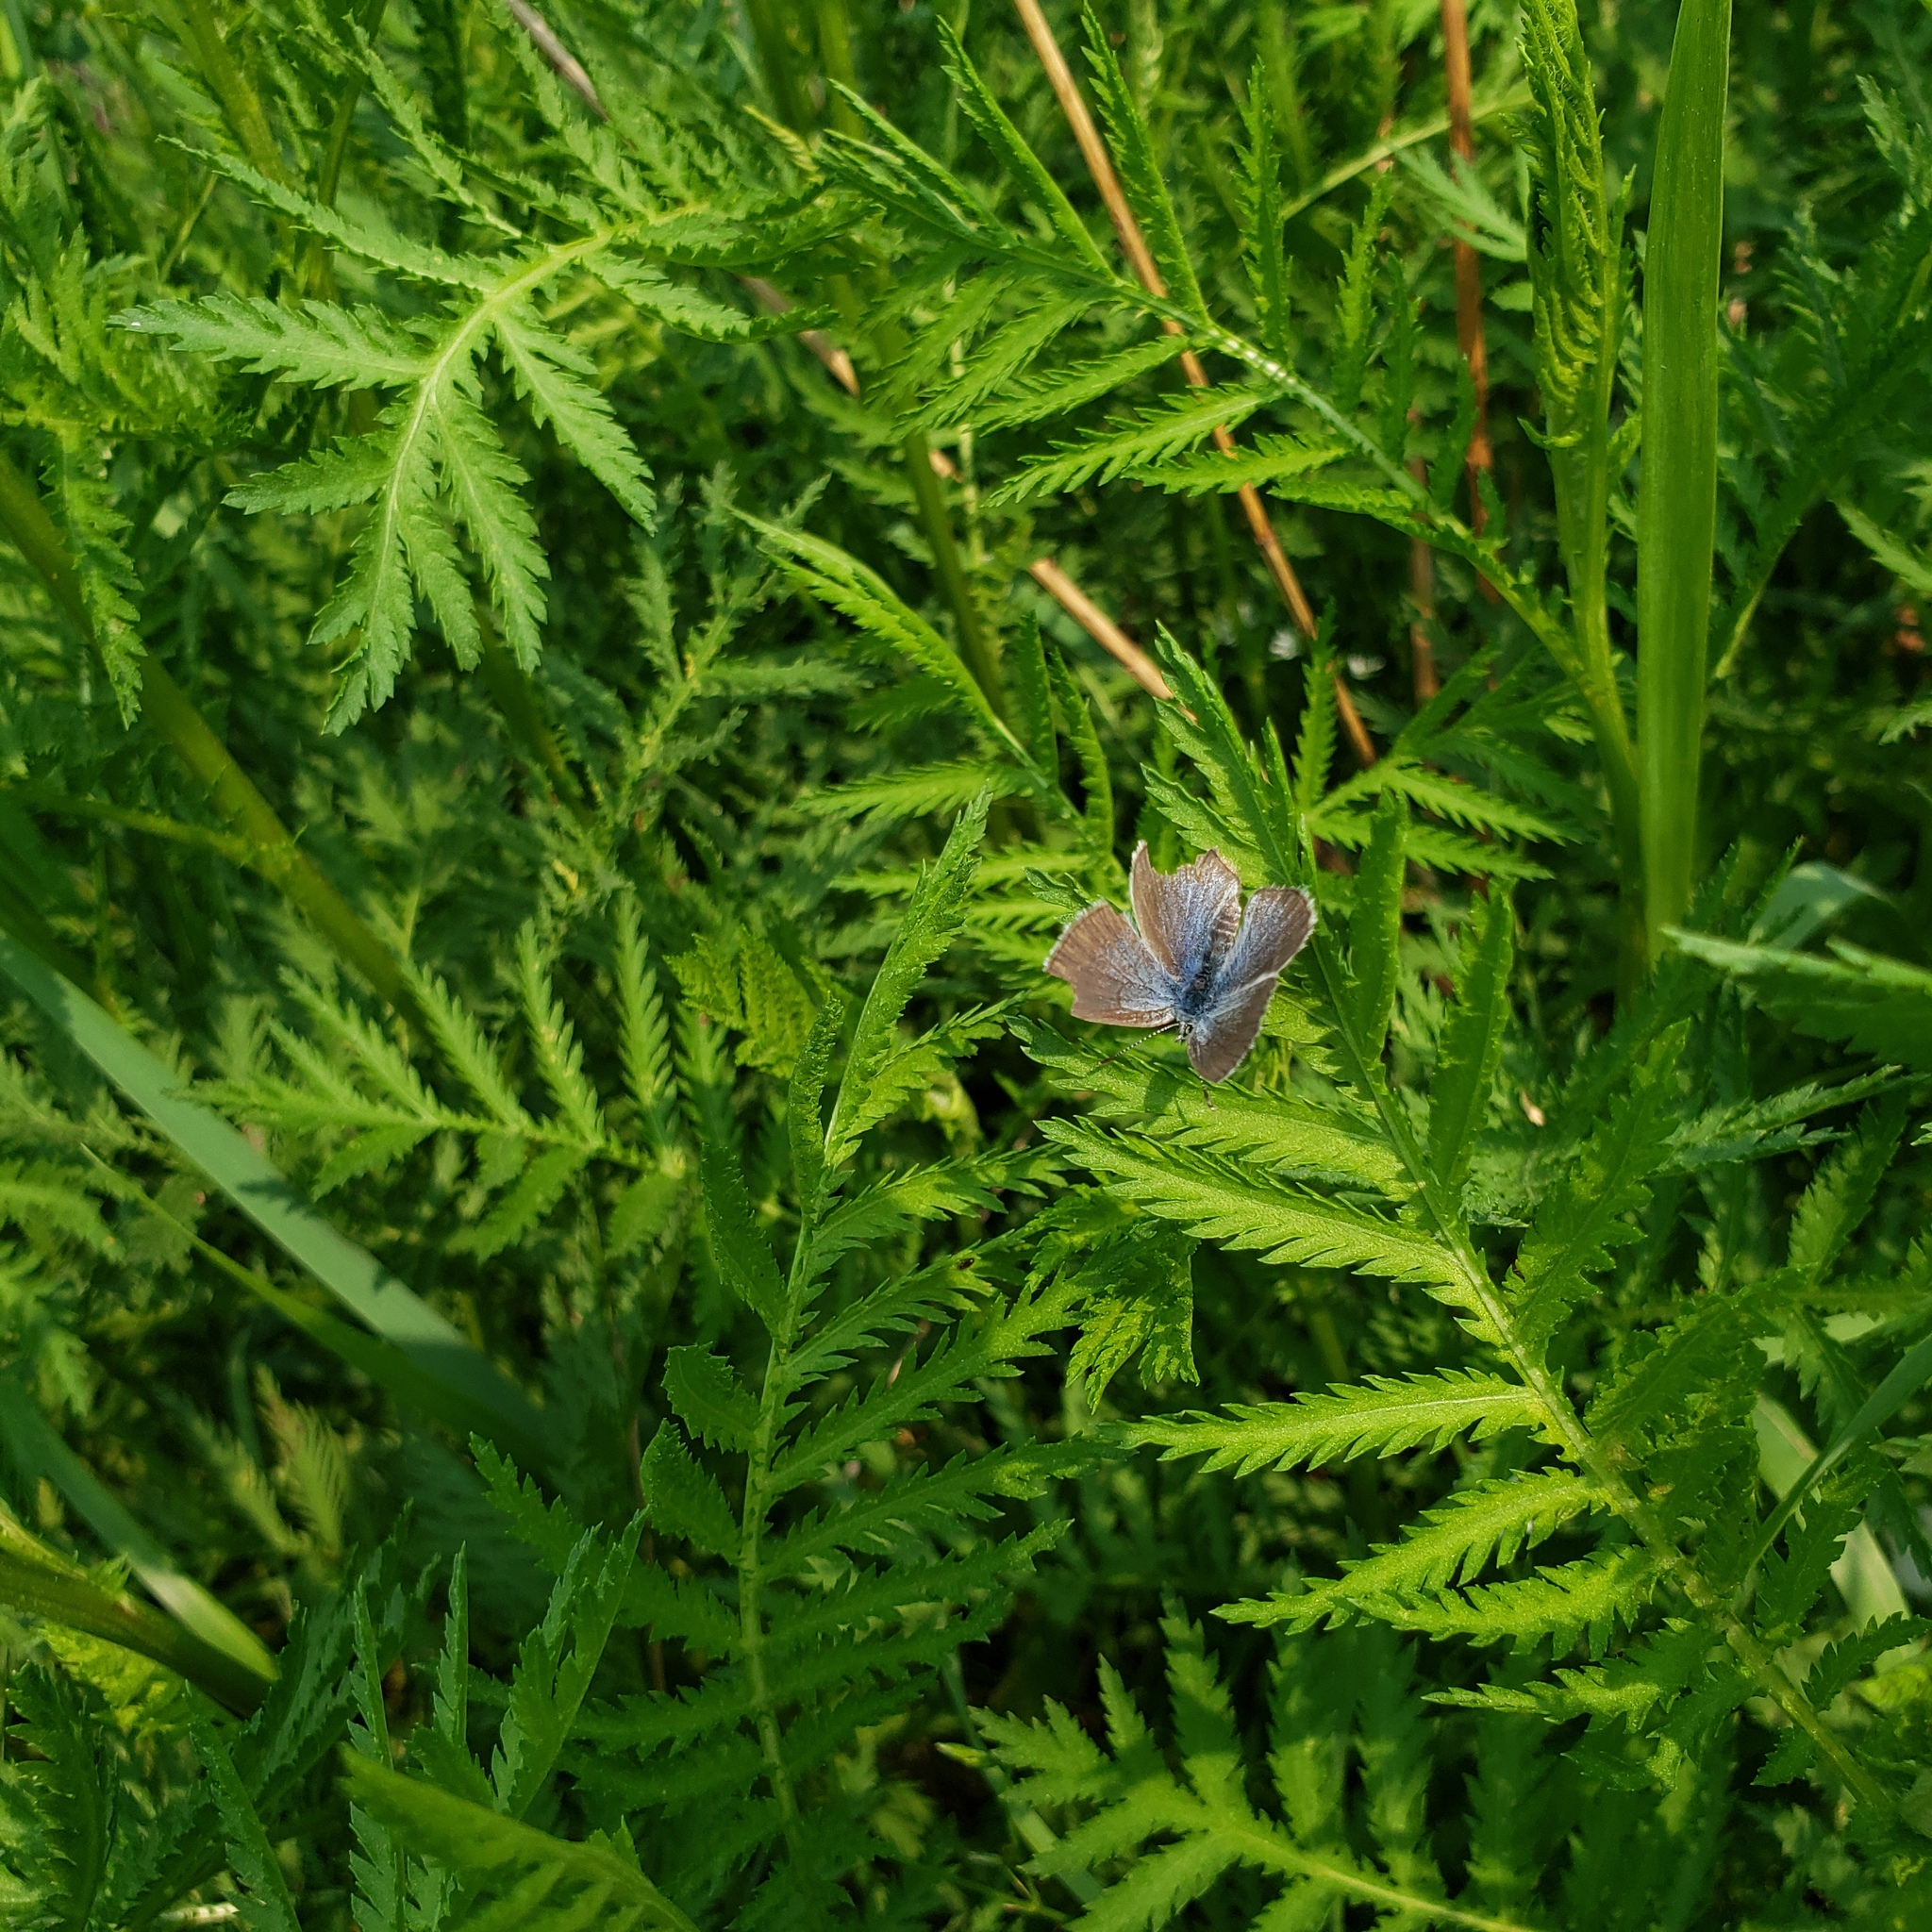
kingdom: Animalia
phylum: Arthropoda
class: Insecta
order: Lepidoptera
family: Lycaenidae
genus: Glaucopsyche
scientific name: Glaucopsyche lygdamus
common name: Silvery blue
